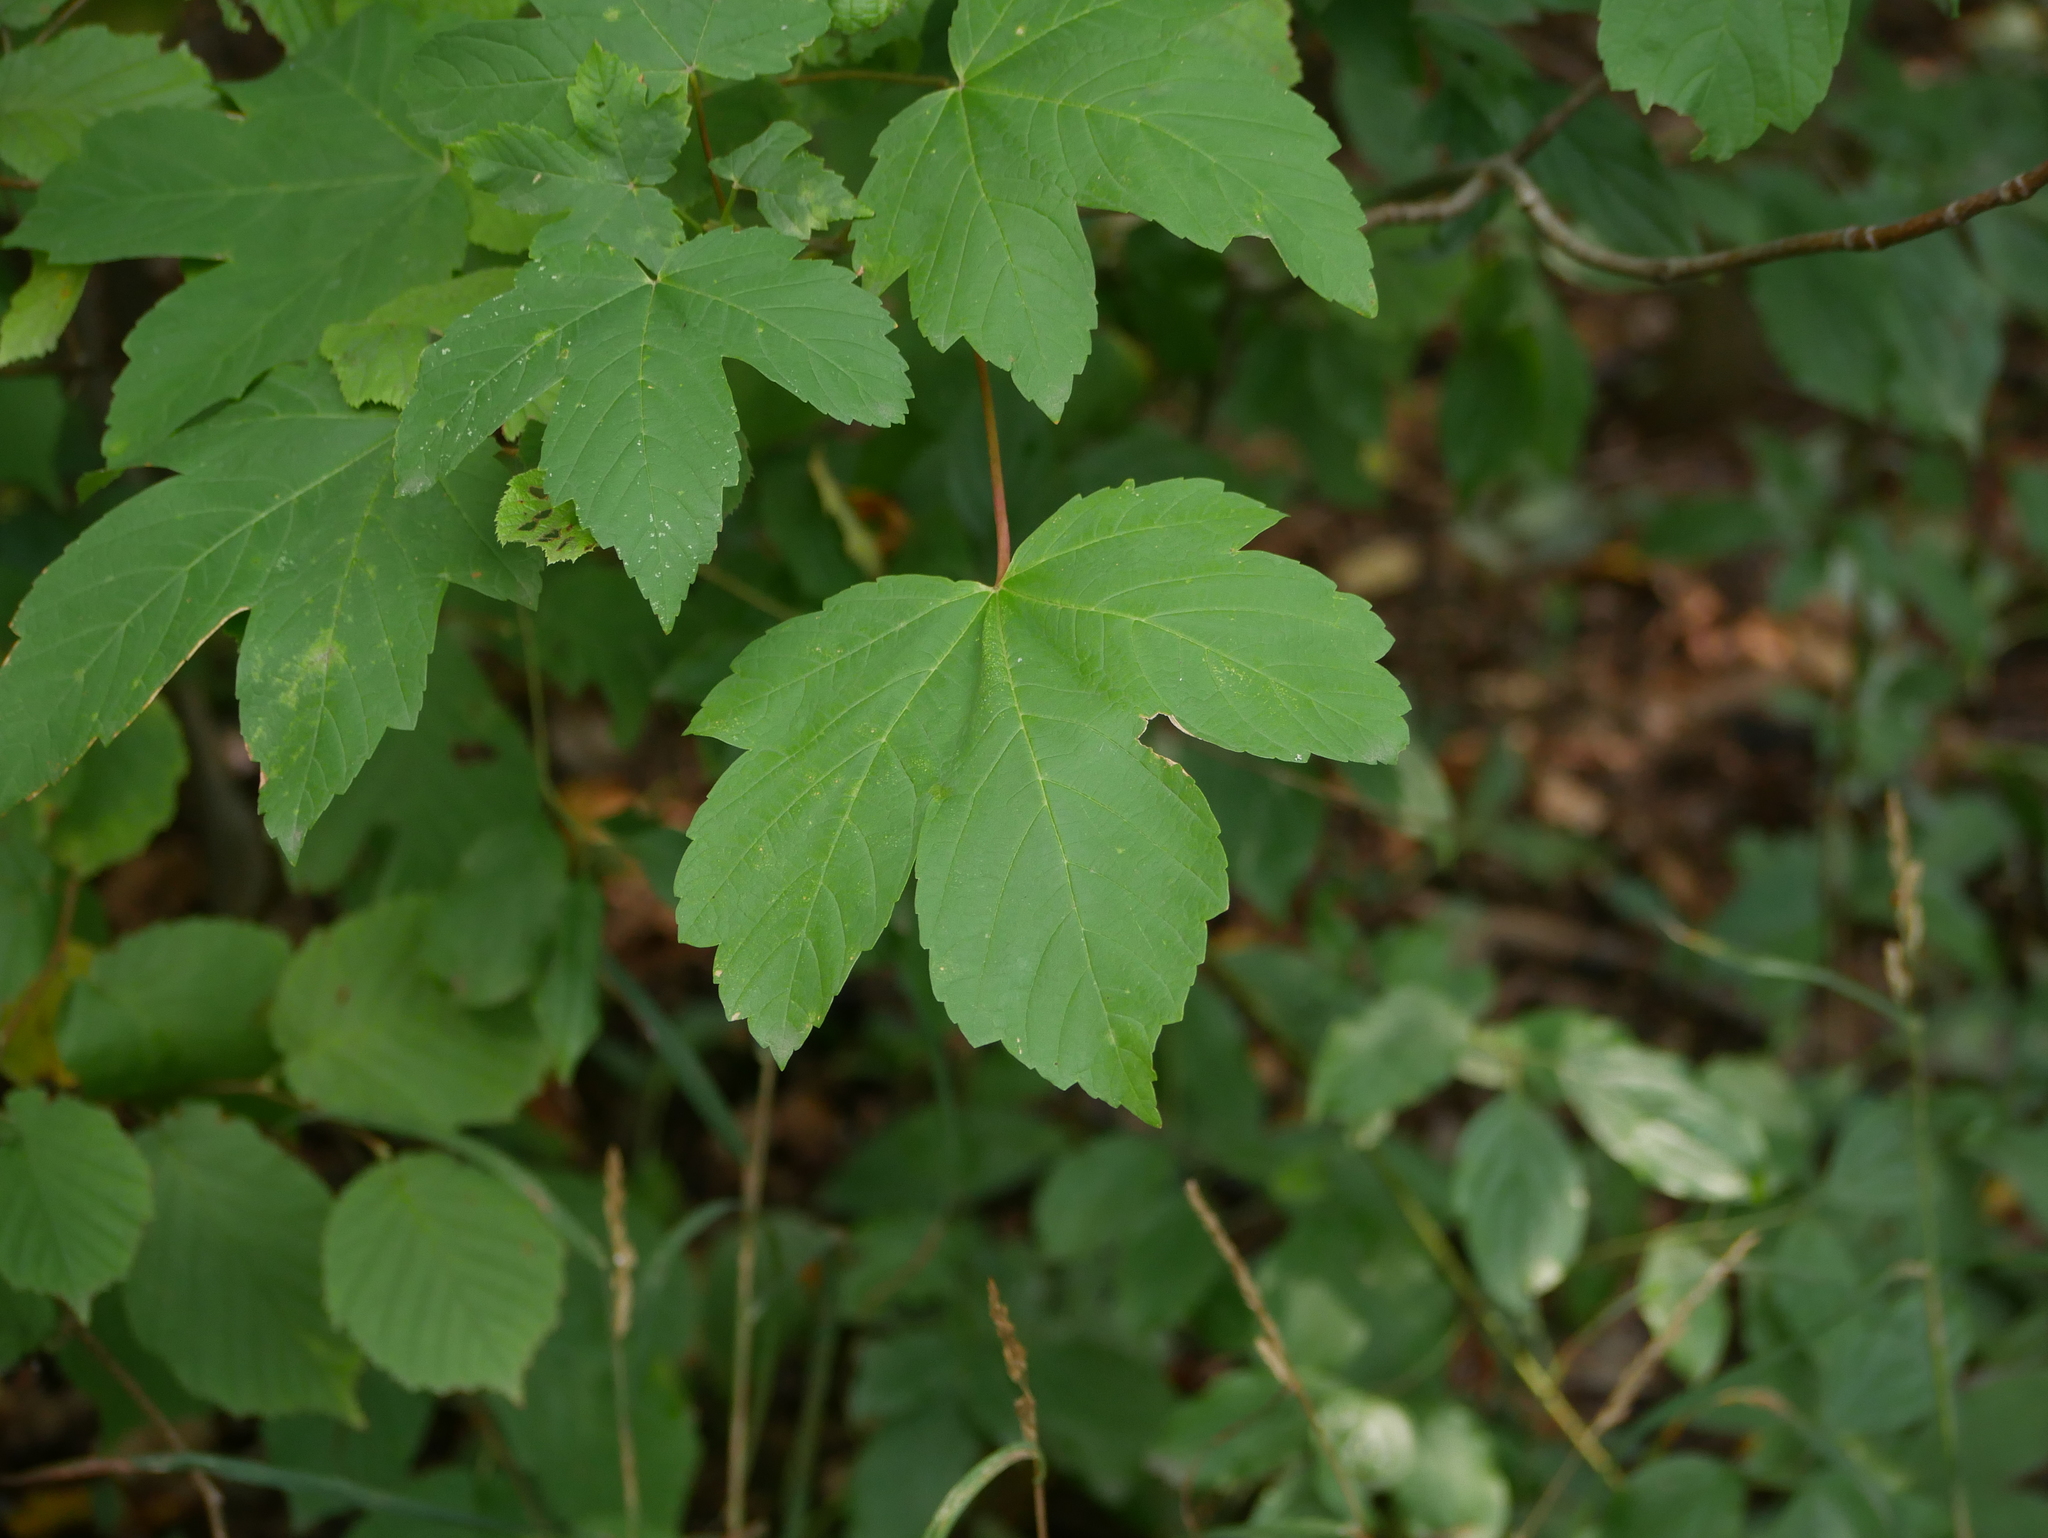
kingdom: Plantae
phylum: Tracheophyta
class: Magnoliopsida
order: Sapindales
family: Sapindaceae
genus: Acer
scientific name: Acer pseudoplatanus
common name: Sycamore
